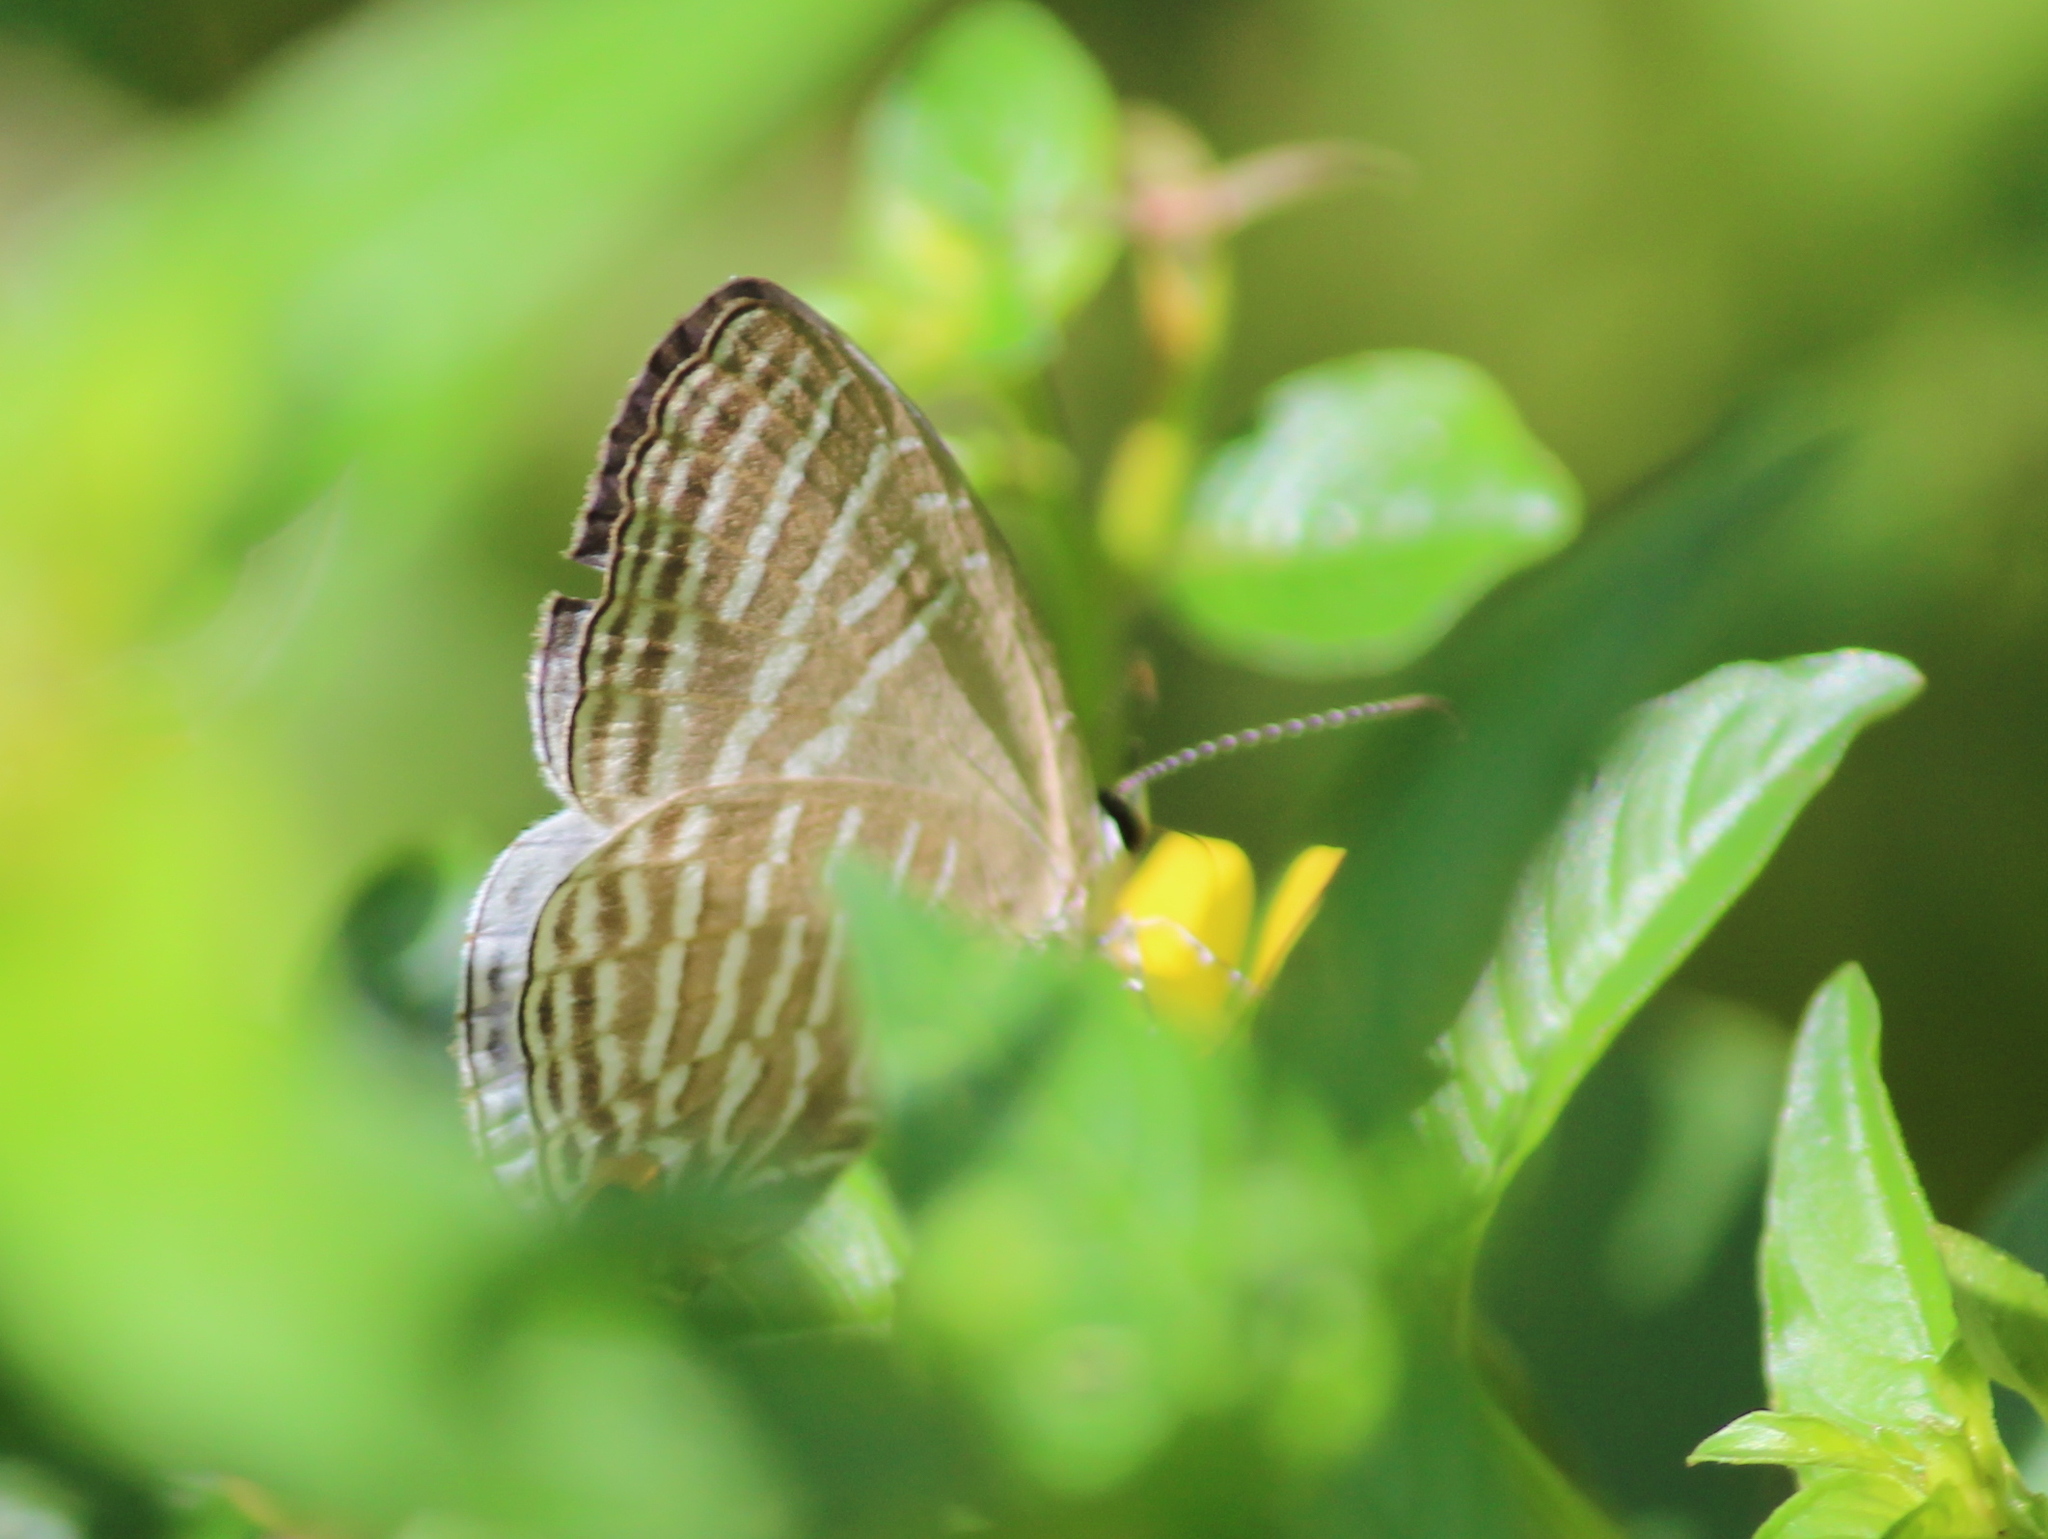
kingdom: Animalia
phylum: Arthropoda
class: Insecta
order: Lepidoptera
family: Lycaenidae
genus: Jamides
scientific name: Jamides celeno
